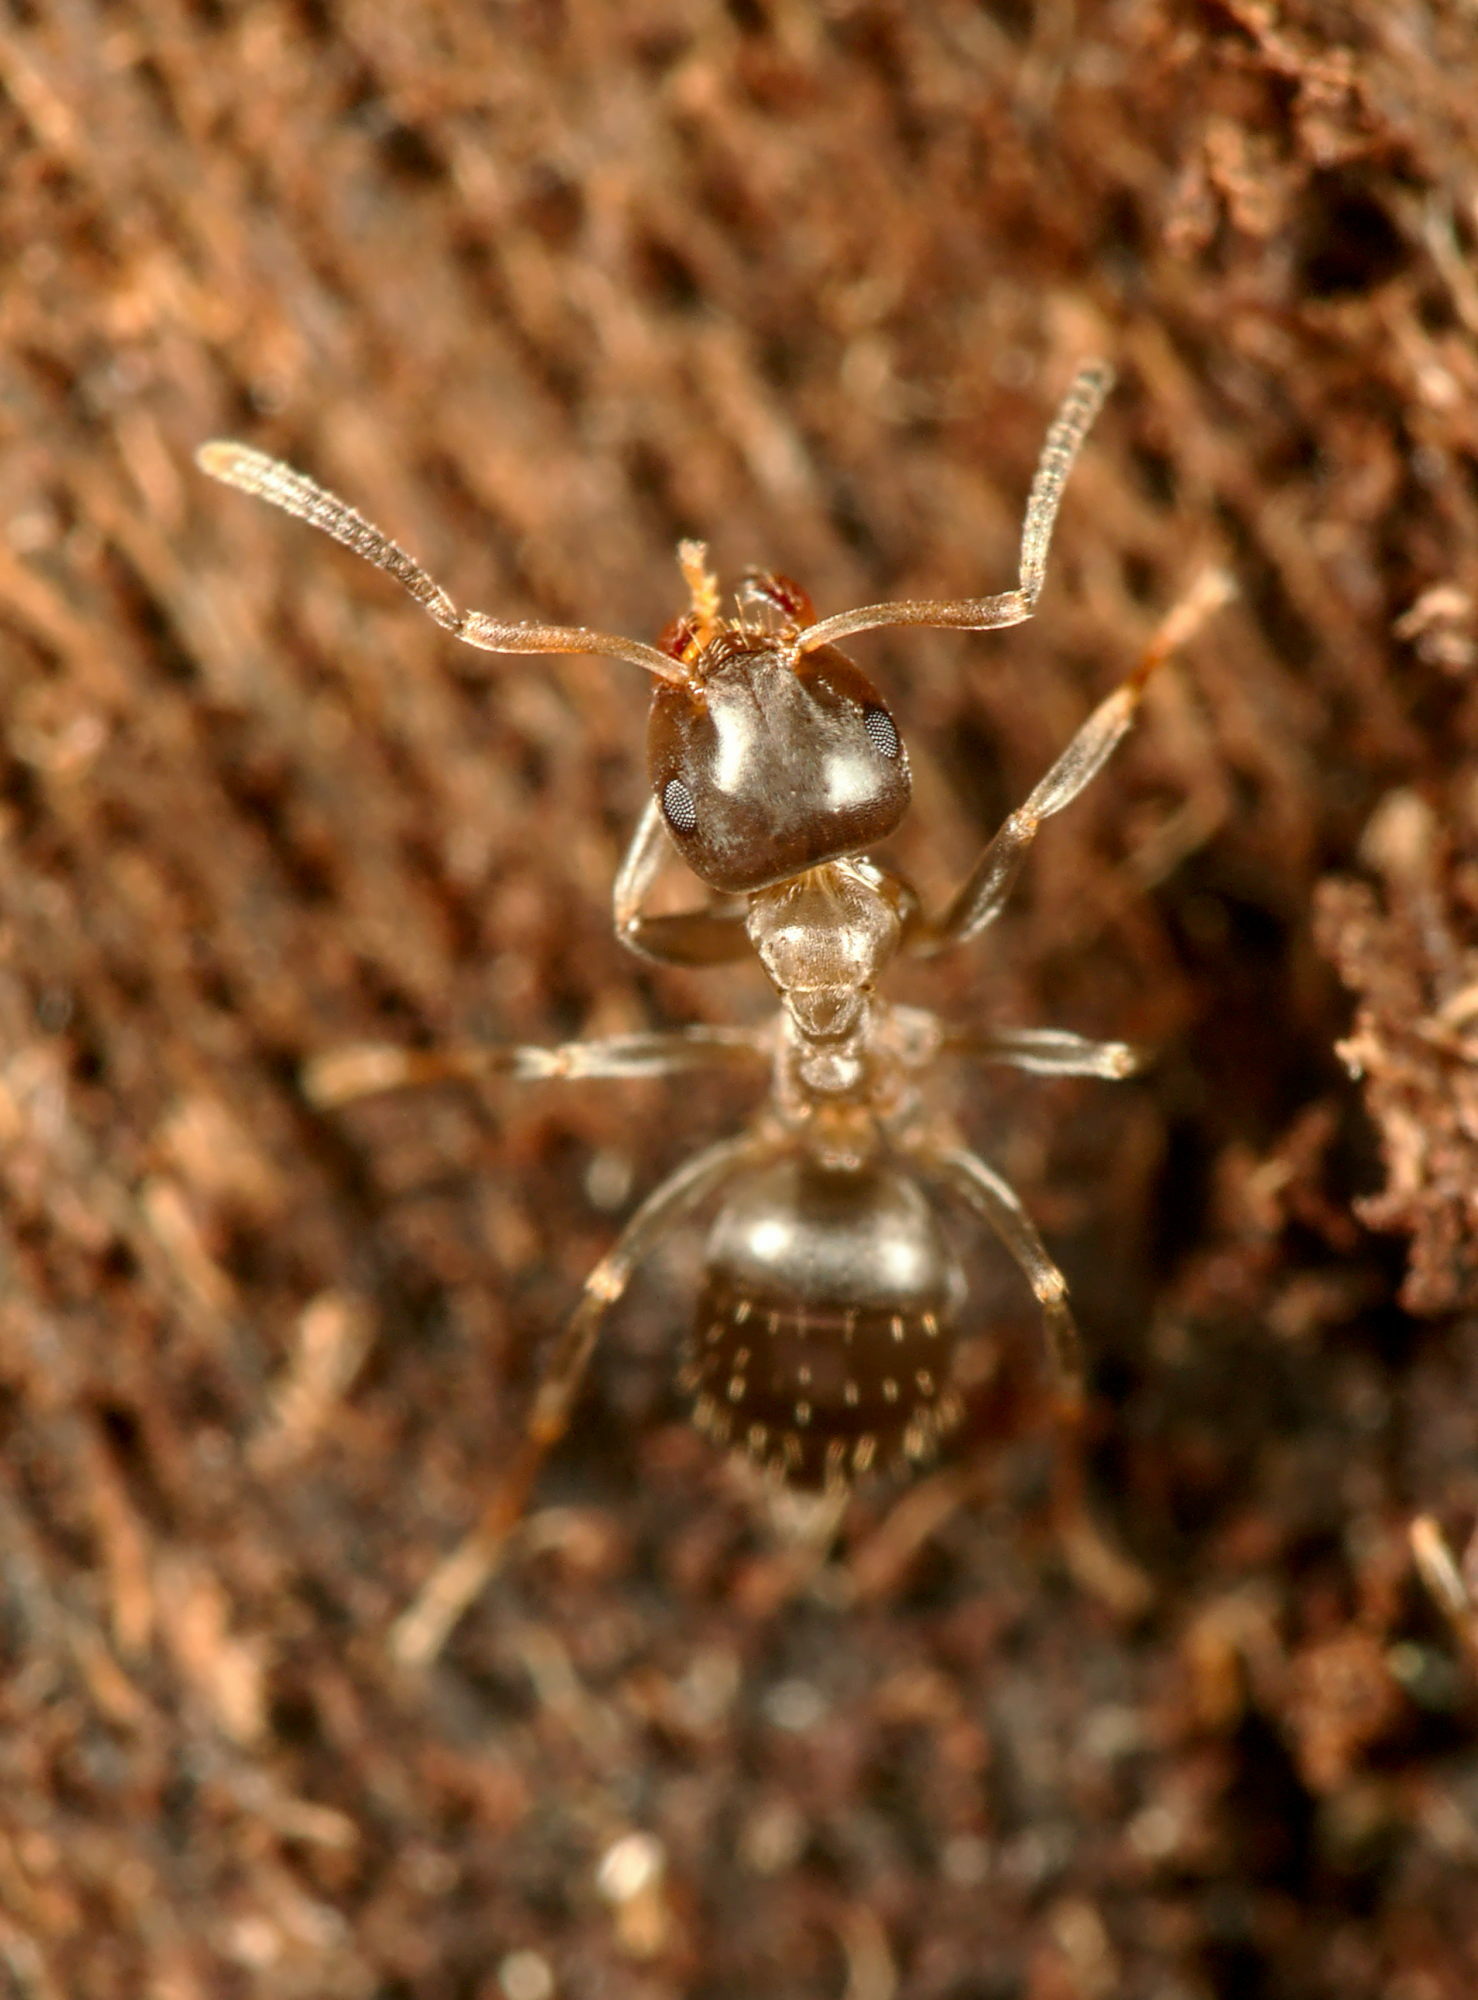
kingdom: Animalia
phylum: Arthropoda
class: Insecta
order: Hymenoptera
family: Formicidae
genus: Lasius
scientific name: Lasius brunneus
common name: Brown ant
